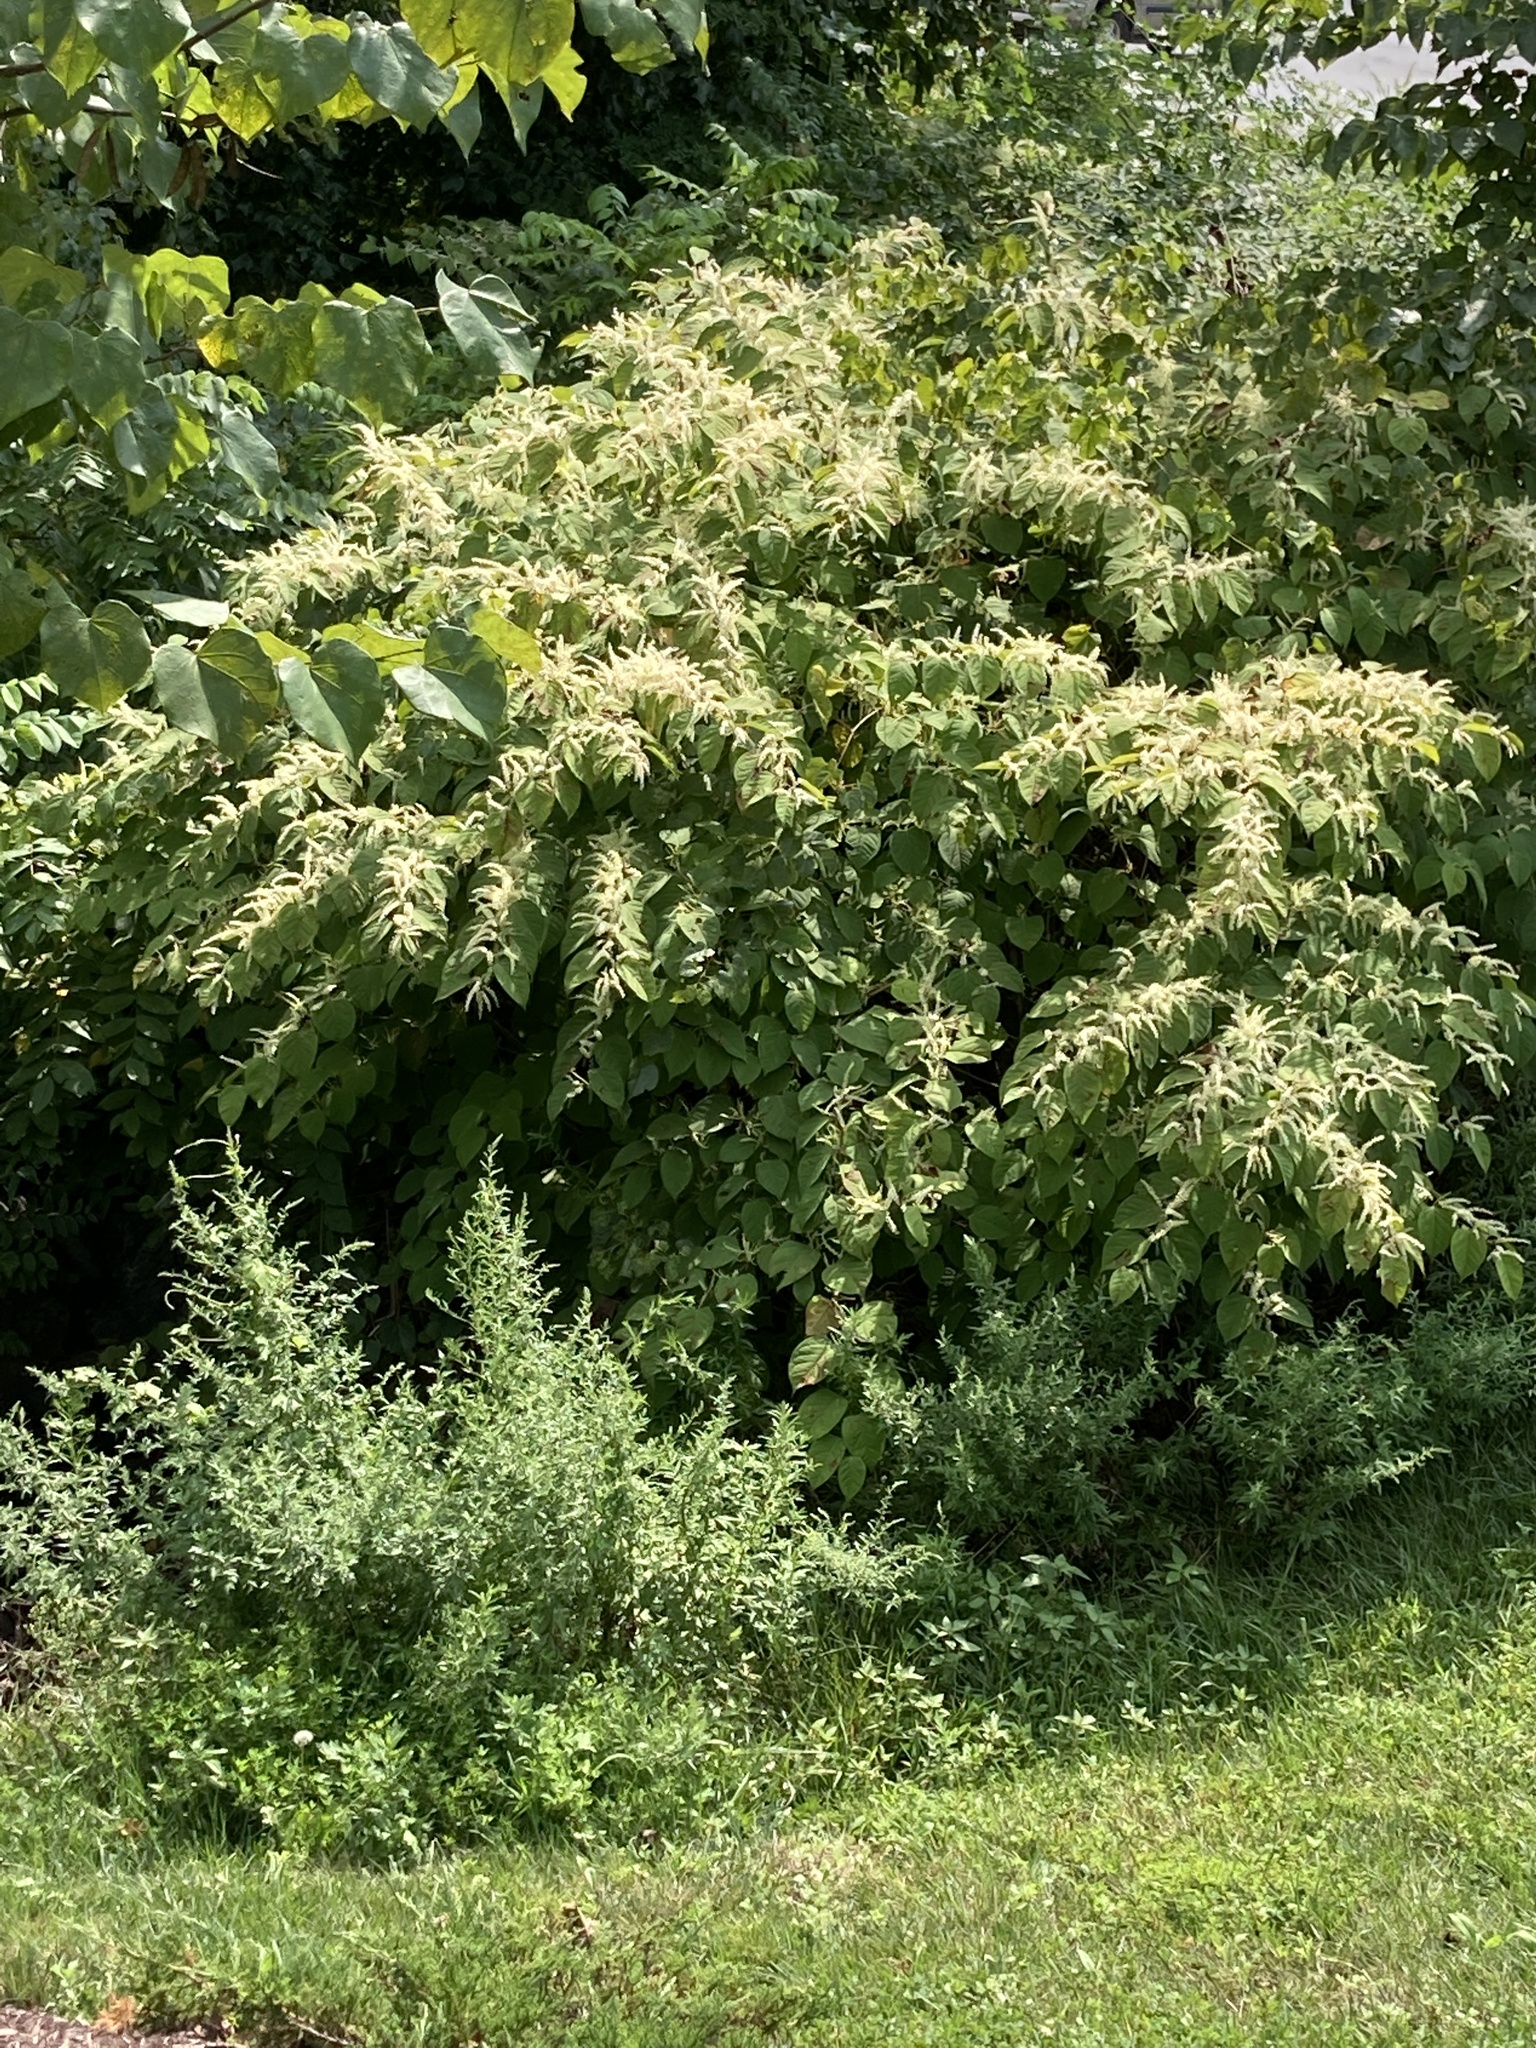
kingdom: Plantae
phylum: Tracheophyta
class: Magnoliopsida
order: Caryophyllales
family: Polygonaceae
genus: Reynoutria
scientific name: Reynoutria japonica
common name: Japanese knotweed
